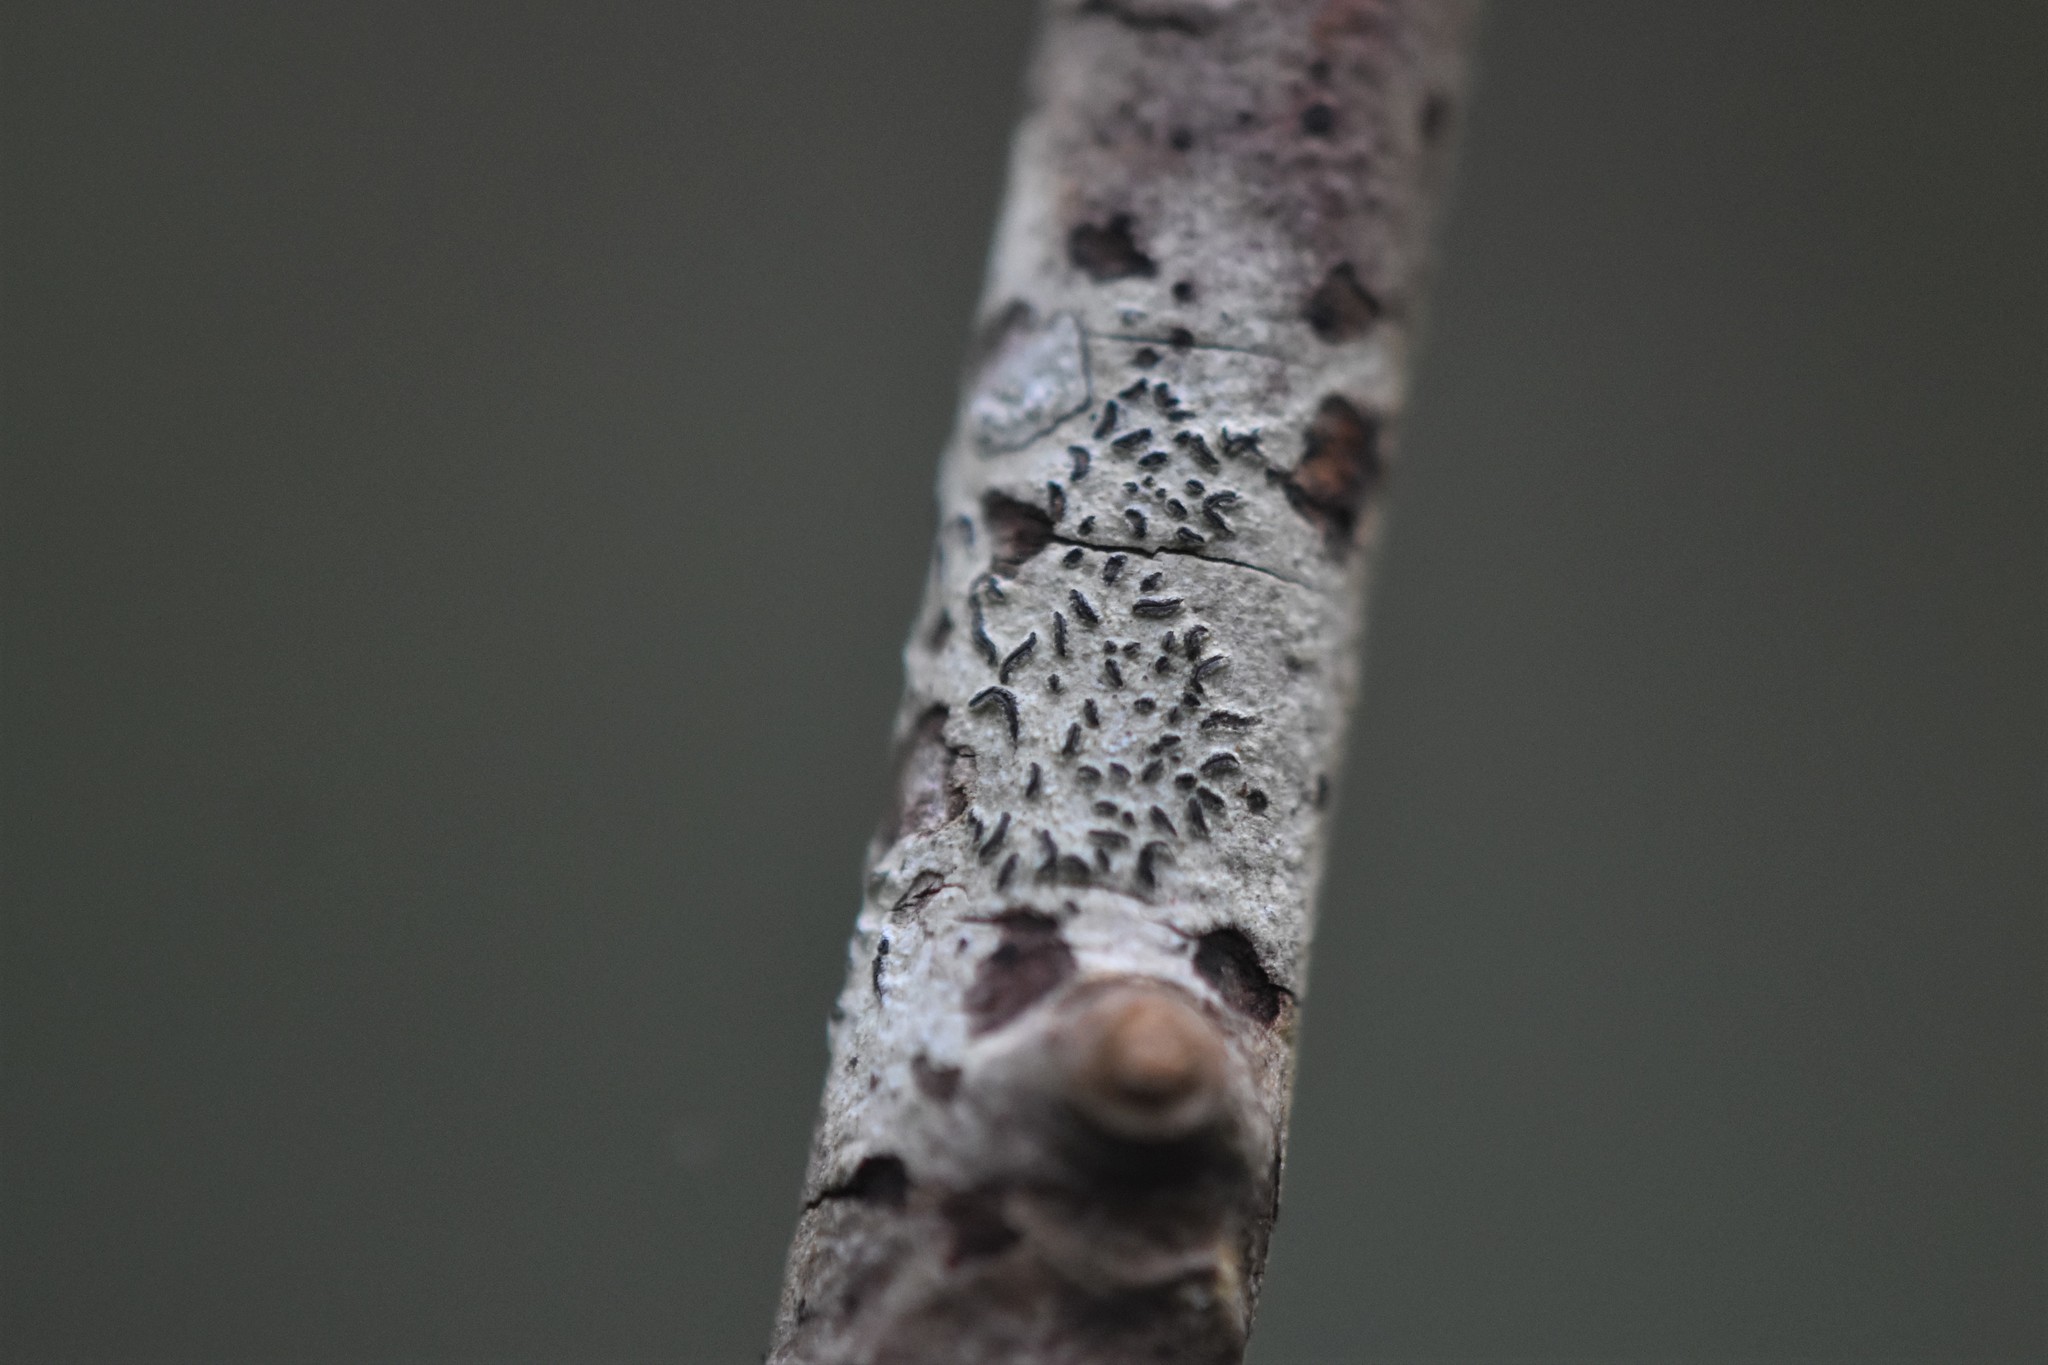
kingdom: Fungi
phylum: Ascomycota
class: Lecanoromycetes
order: Ostropales
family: Graphidaceae
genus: Graphis
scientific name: Graphis scripta
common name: Script lichen
